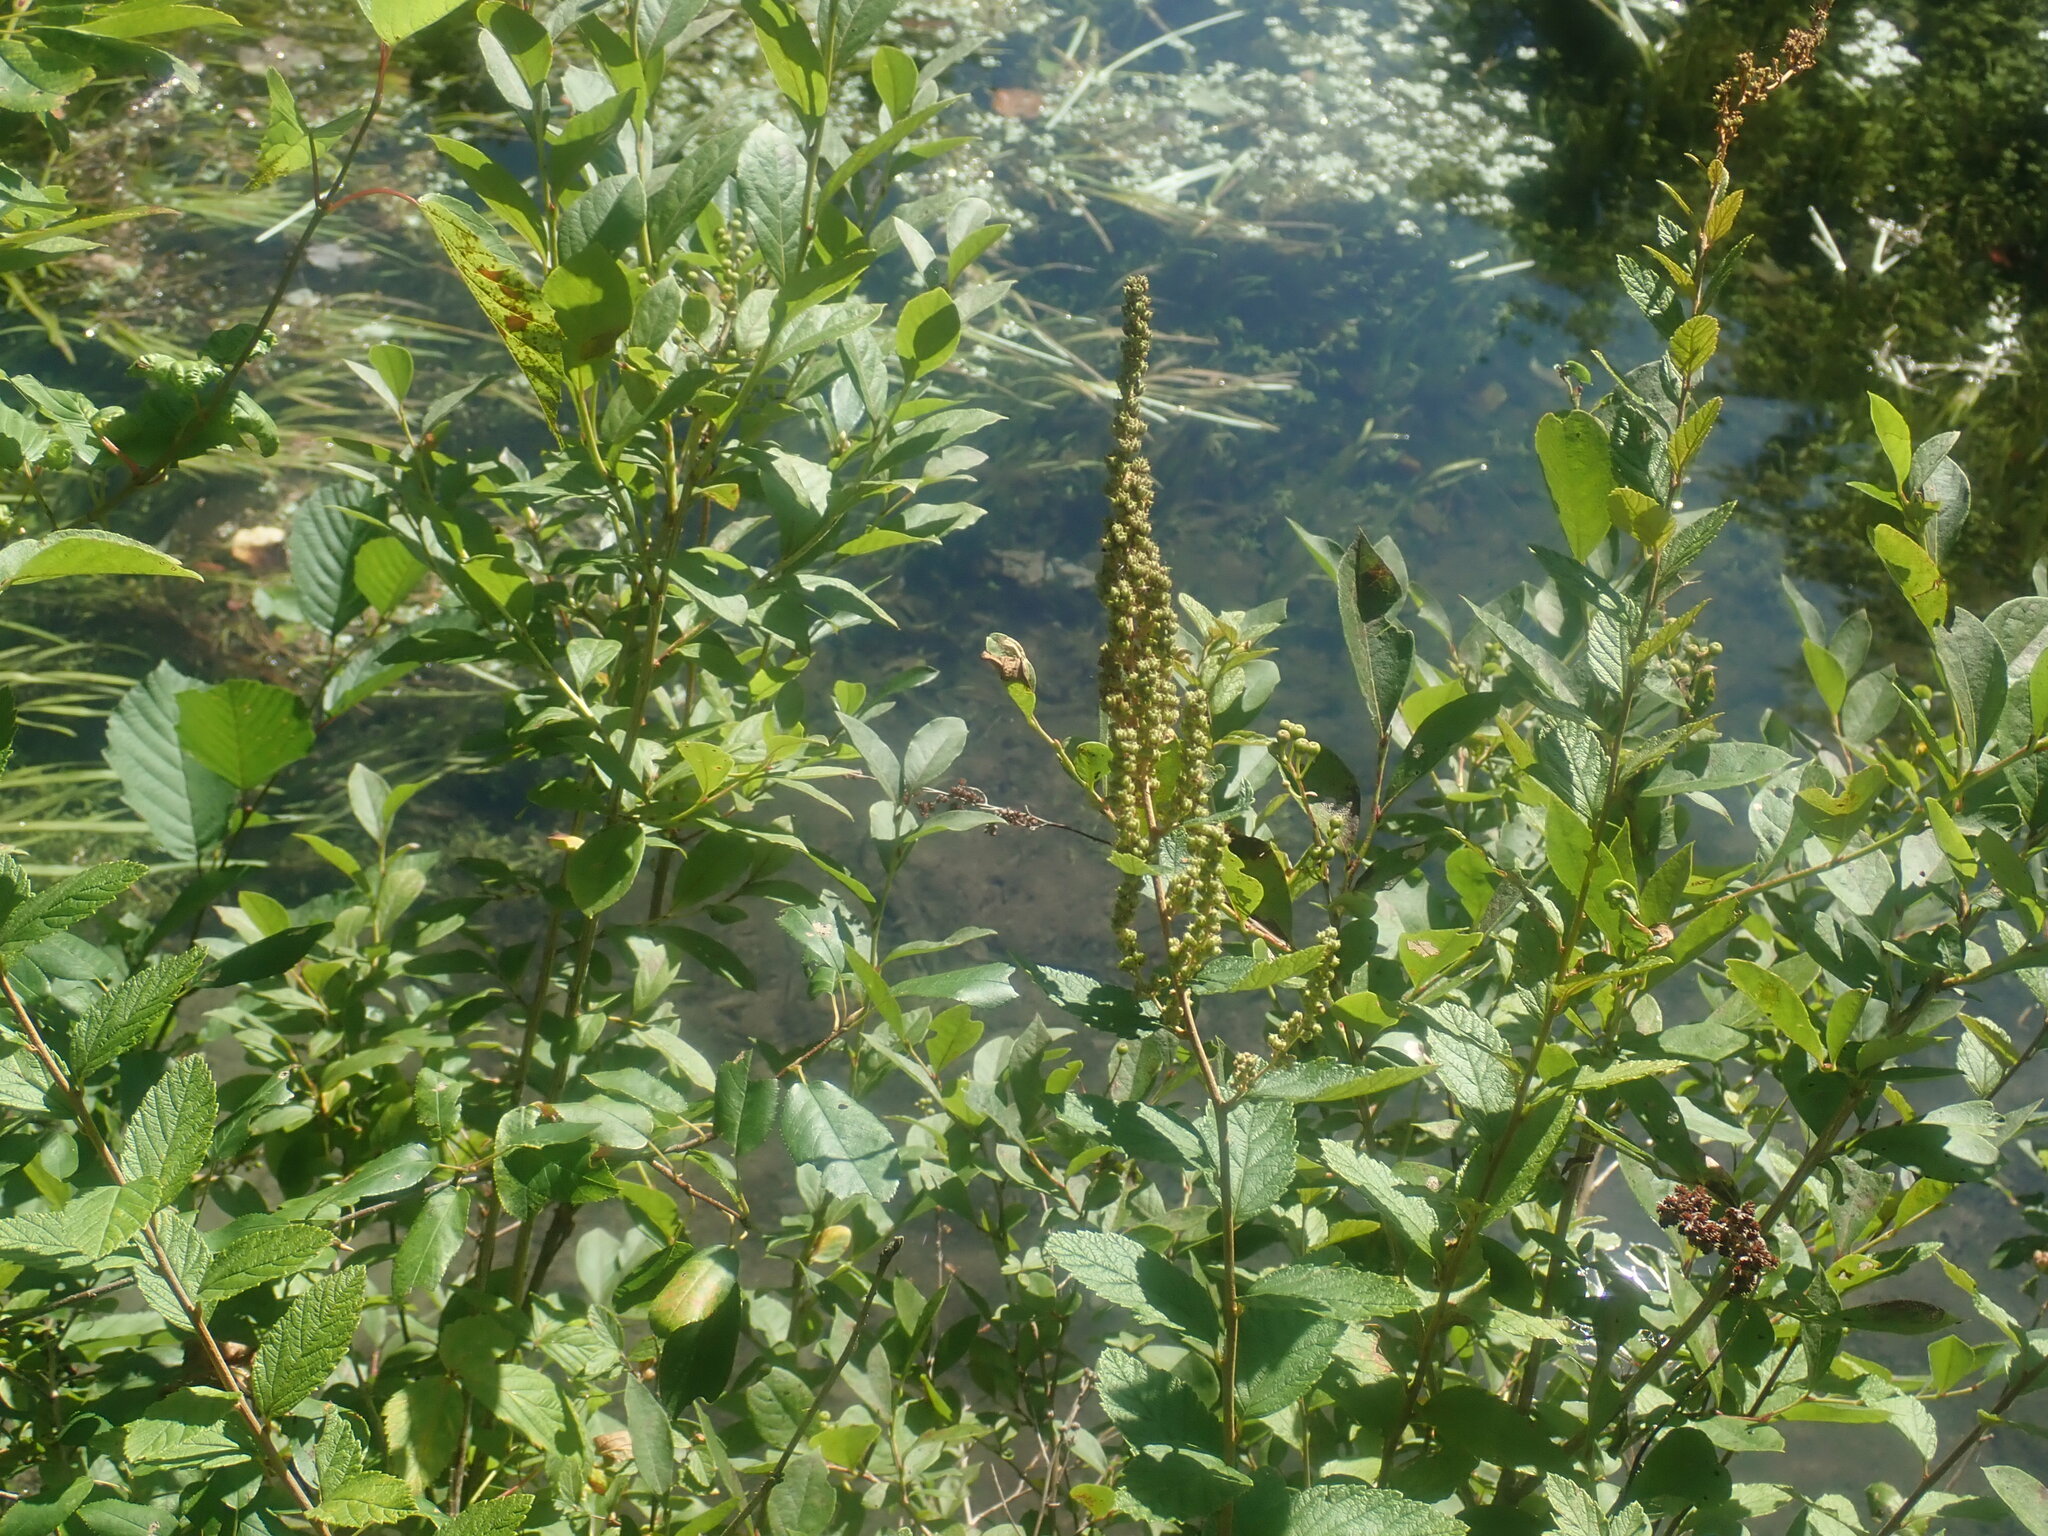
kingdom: Plantae
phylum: Tracheophyta
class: Magnoliopsida
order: Rosales
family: Rosaceae
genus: Spiraea
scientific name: Spiraea tomentosa
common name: Hardhack
